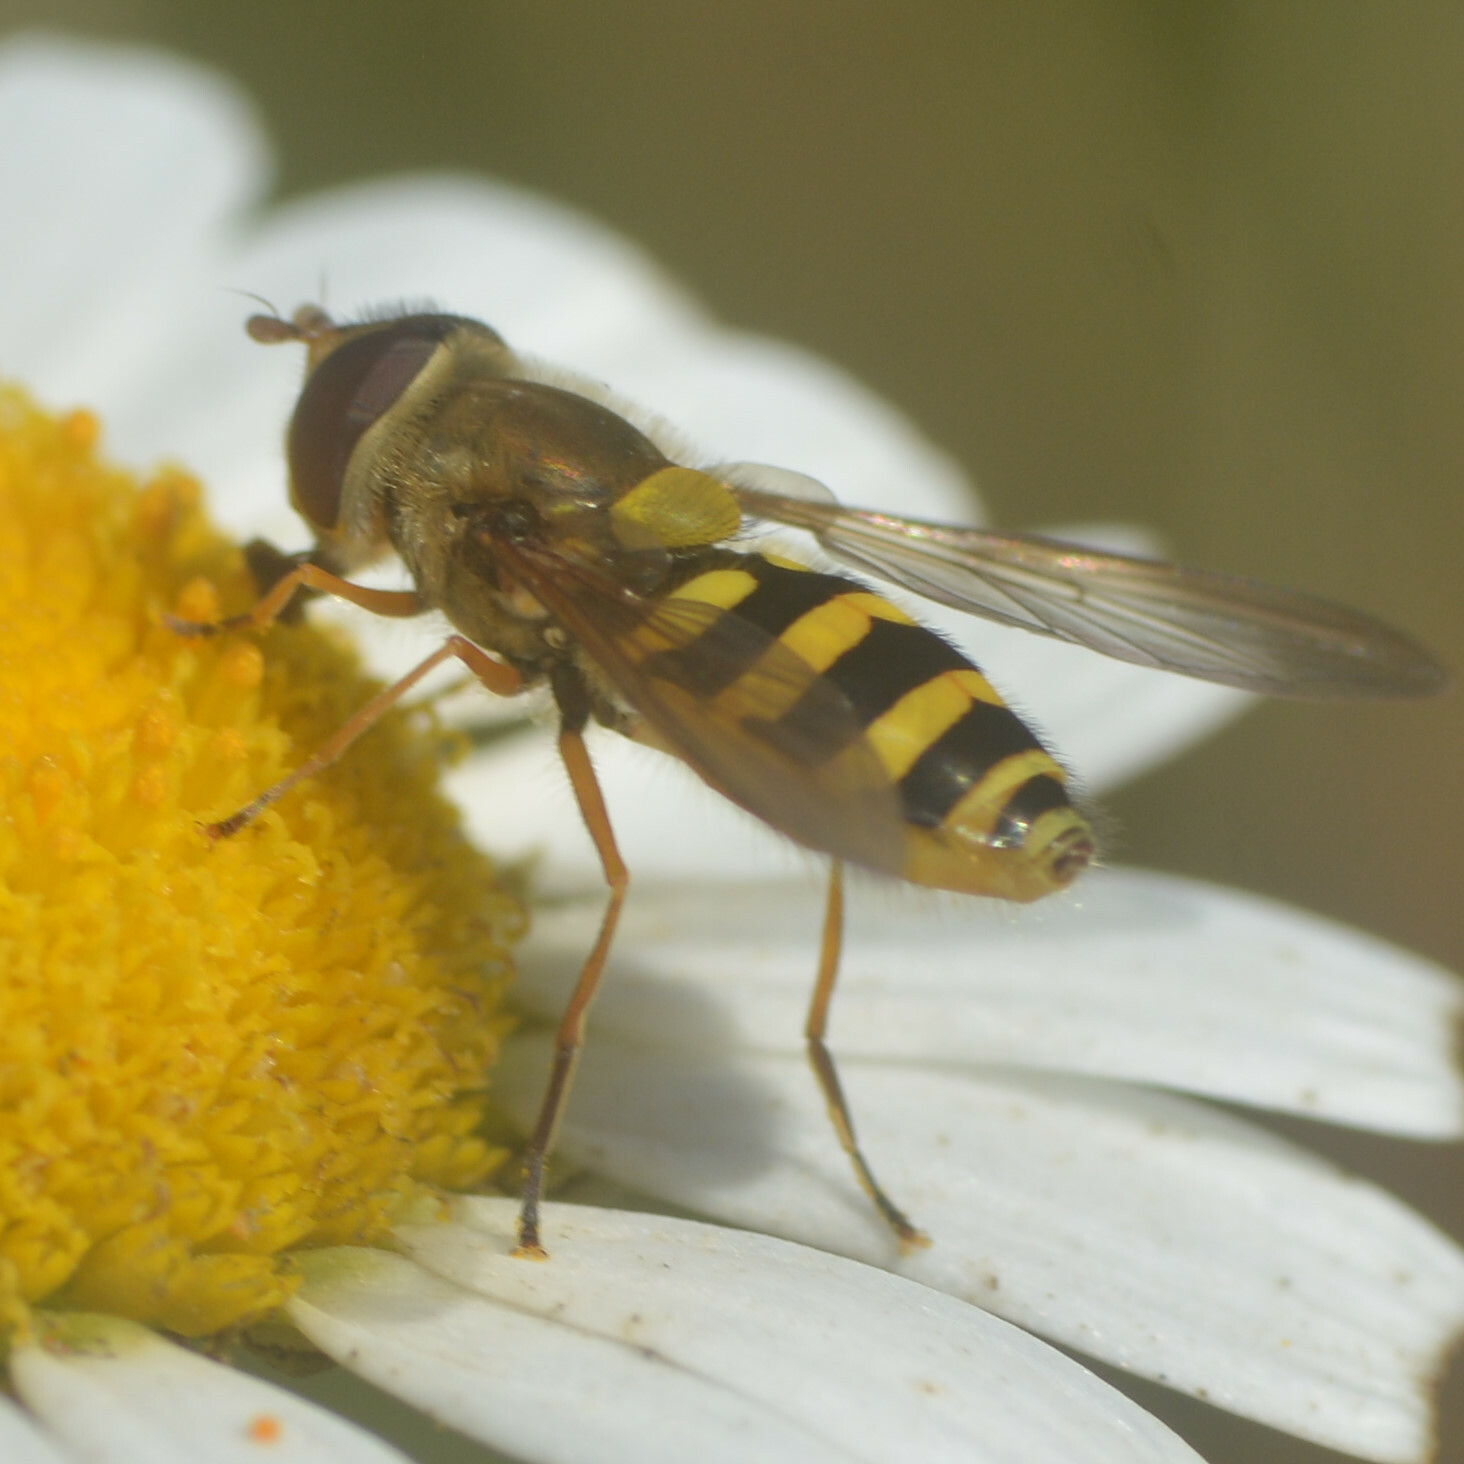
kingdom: Animalia
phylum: Arthropoda
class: Insecta
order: Diptera
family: Syrphidae
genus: Syrphus
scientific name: Syrphus ribesii
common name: Common flower fly
